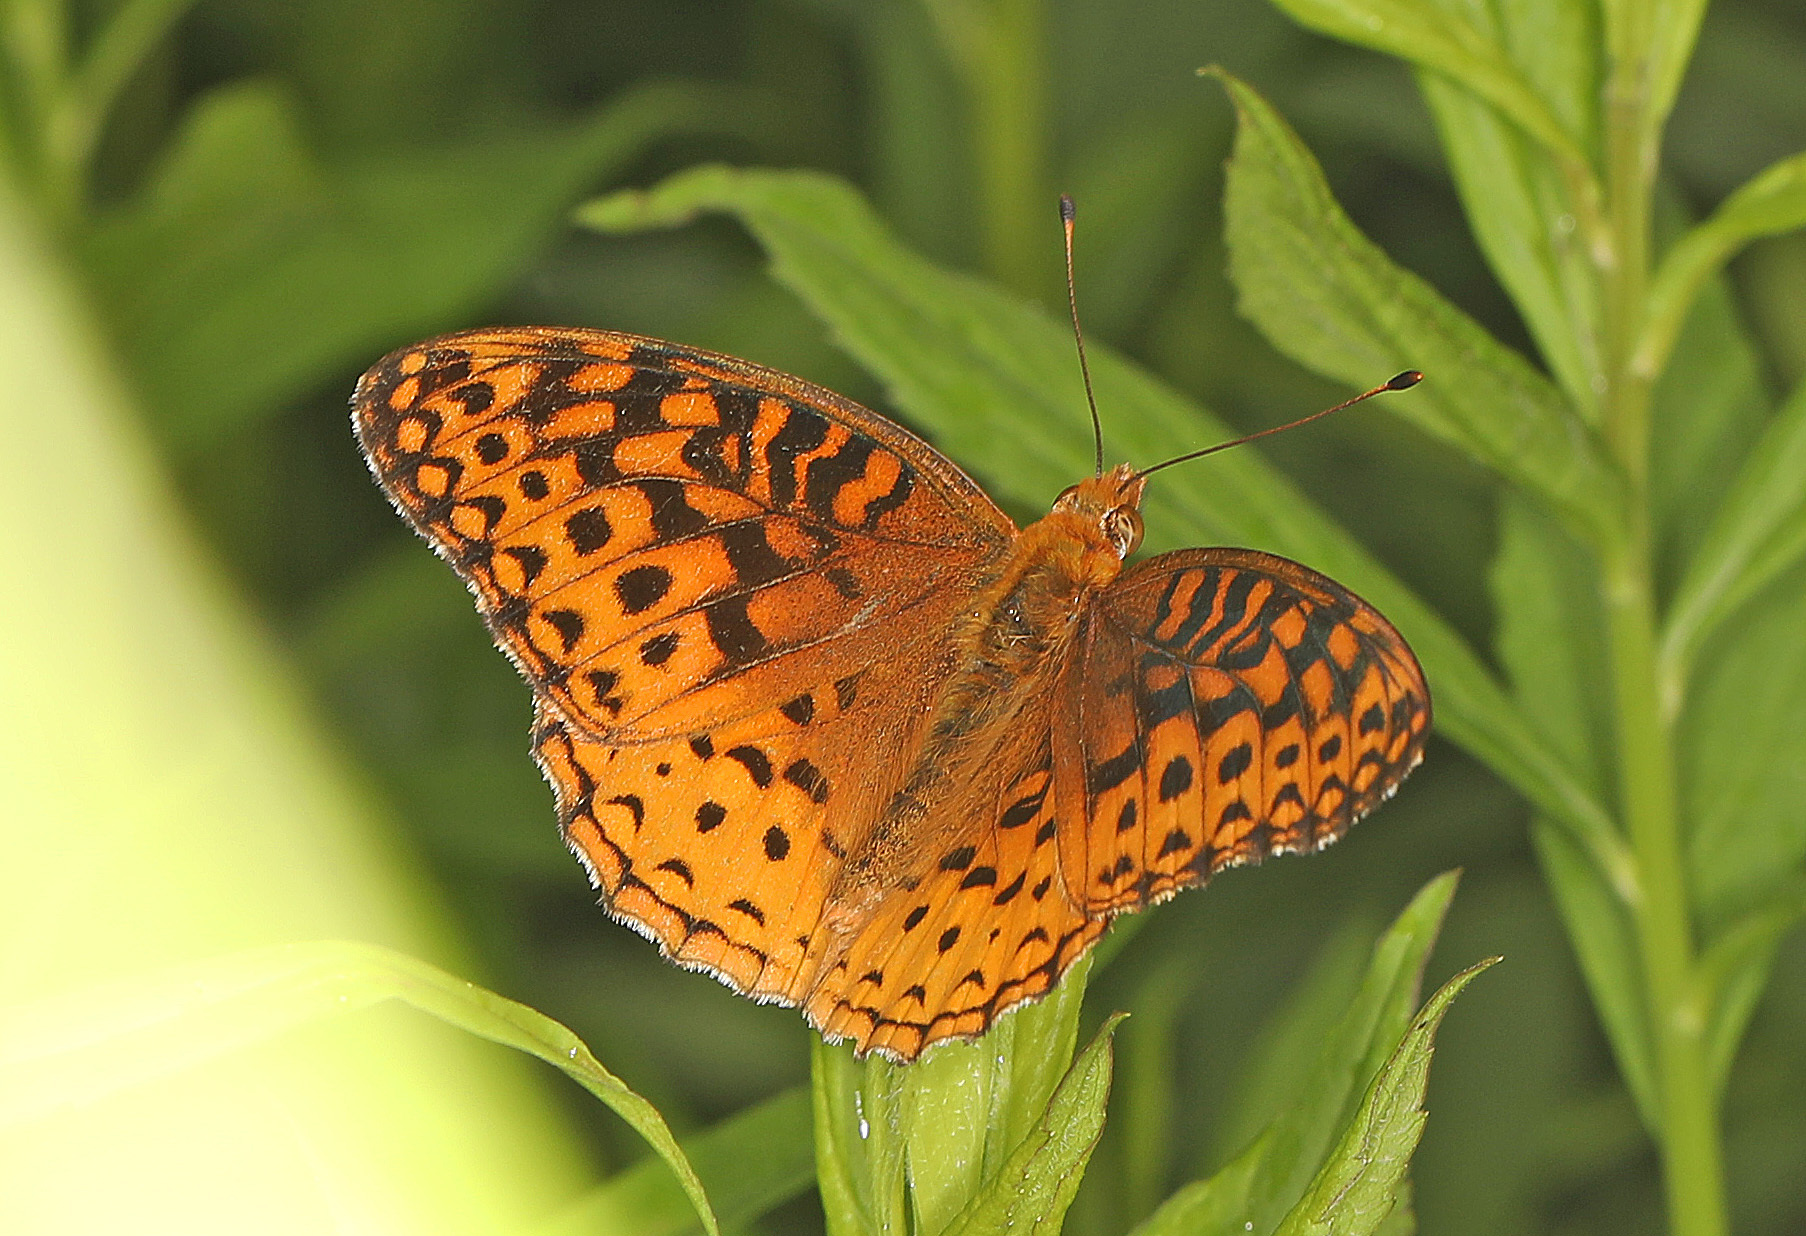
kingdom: Animalia
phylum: Arthropoda
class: Insecta
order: Lepidoptera
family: Nymphalidae
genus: Speyeria
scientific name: Speyeria aphrodite
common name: Aphrodite friitllary
